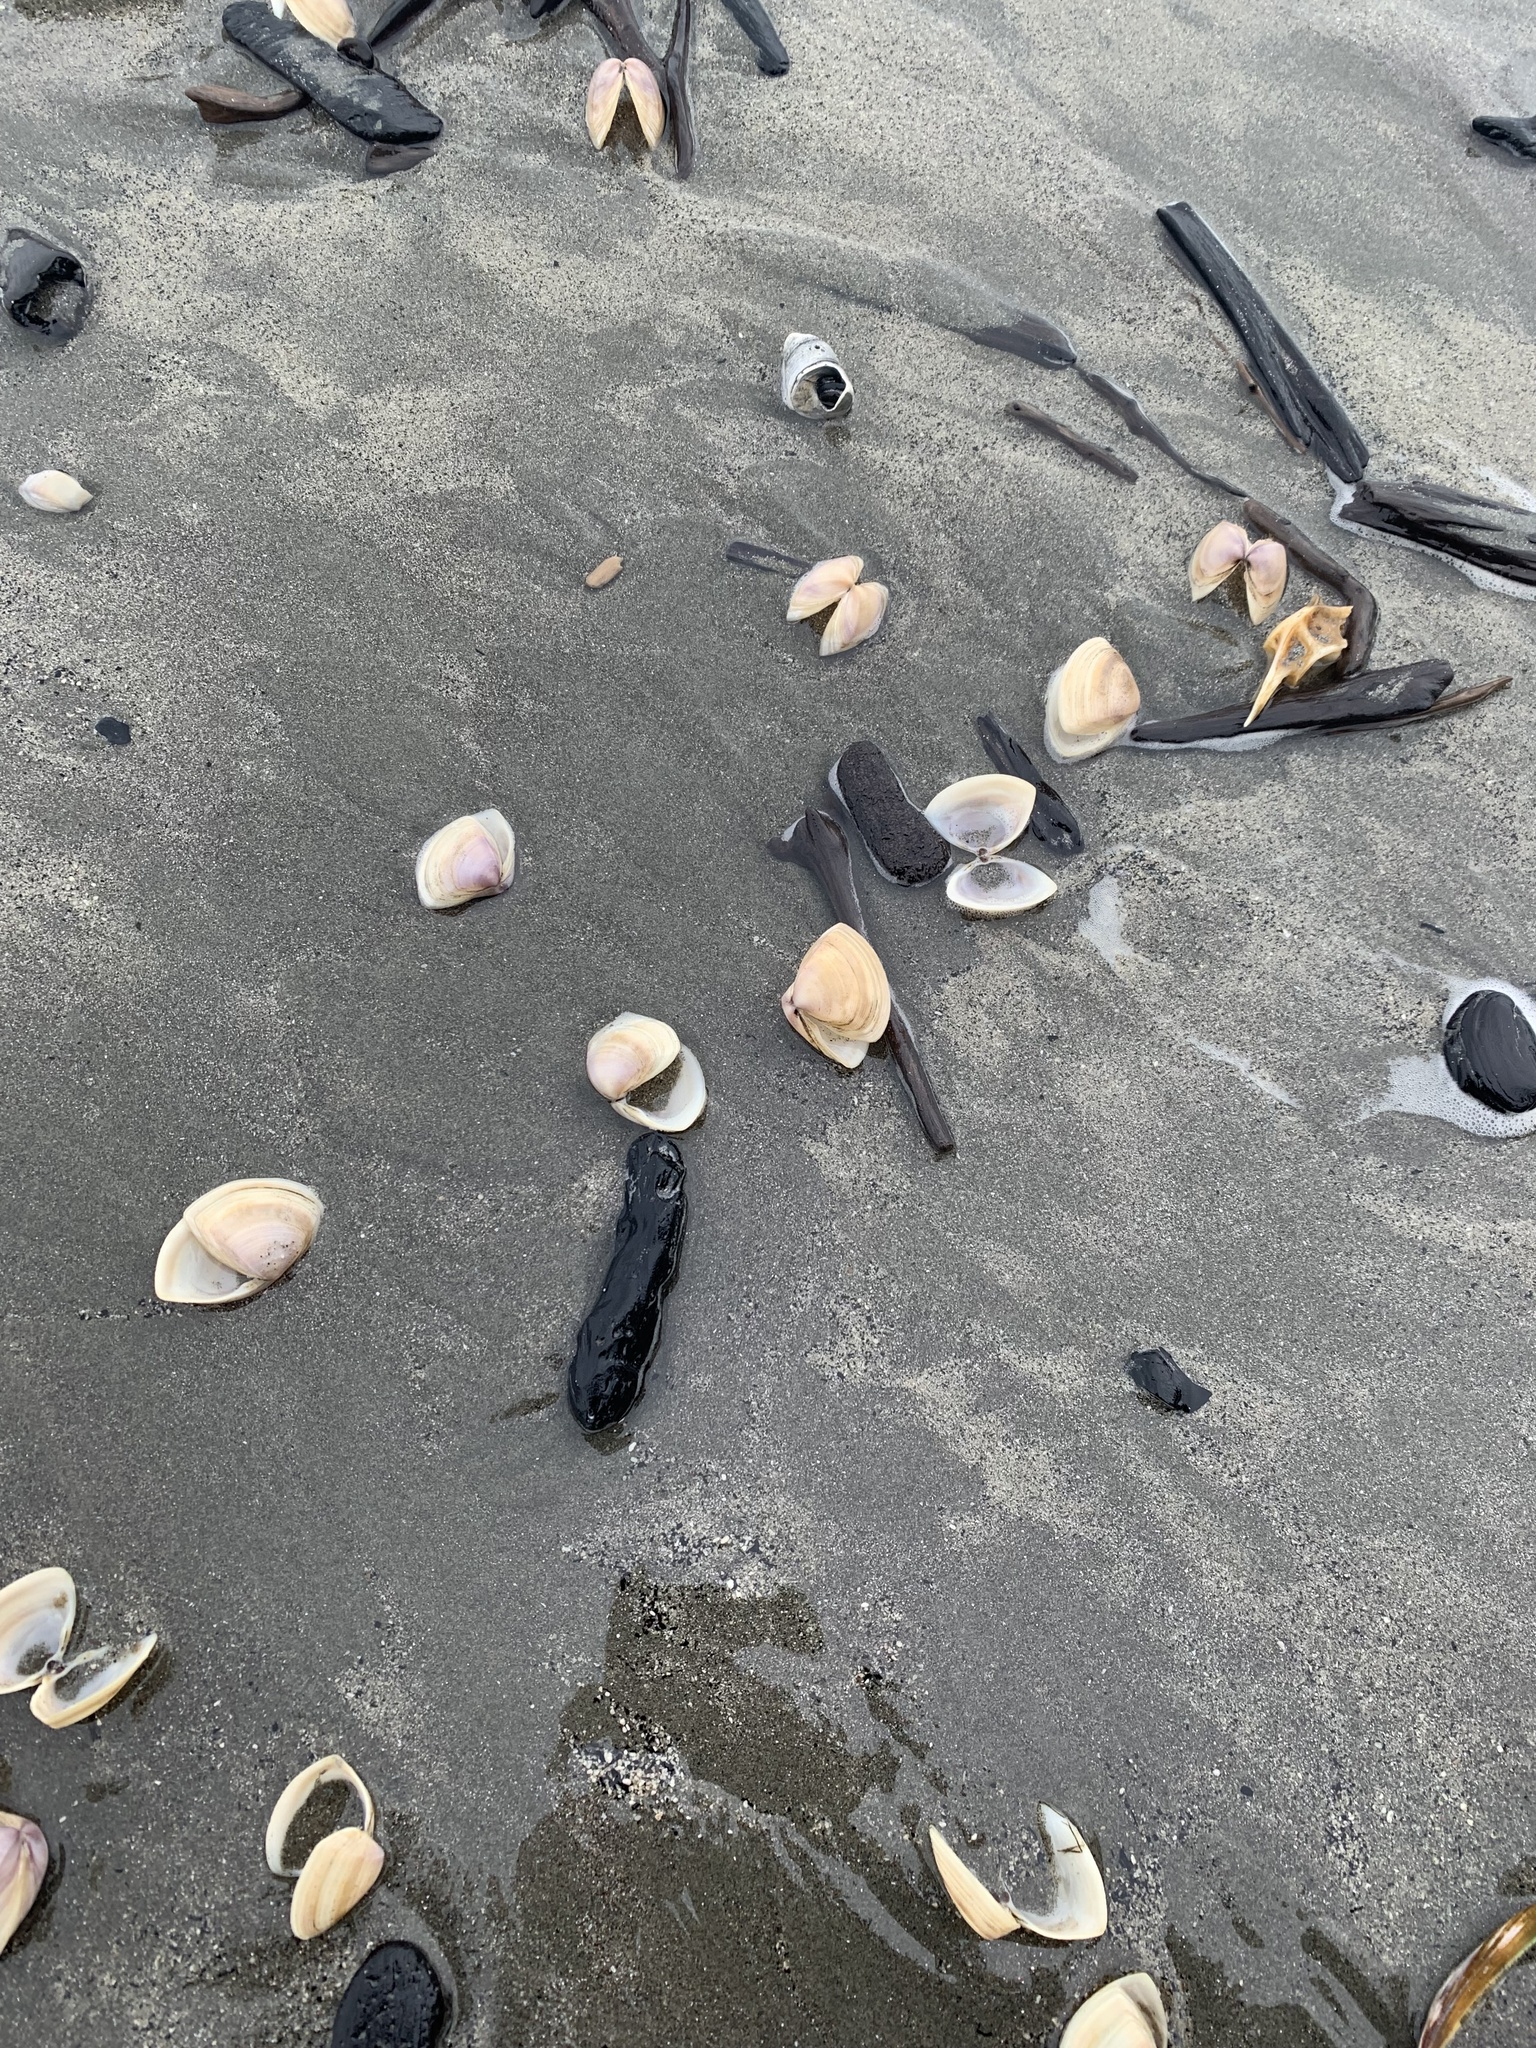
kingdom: Animalia
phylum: Mollusca
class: Bivalvia
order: Venerida
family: Mactridae
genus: Crassula
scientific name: Crassula aequilatera
